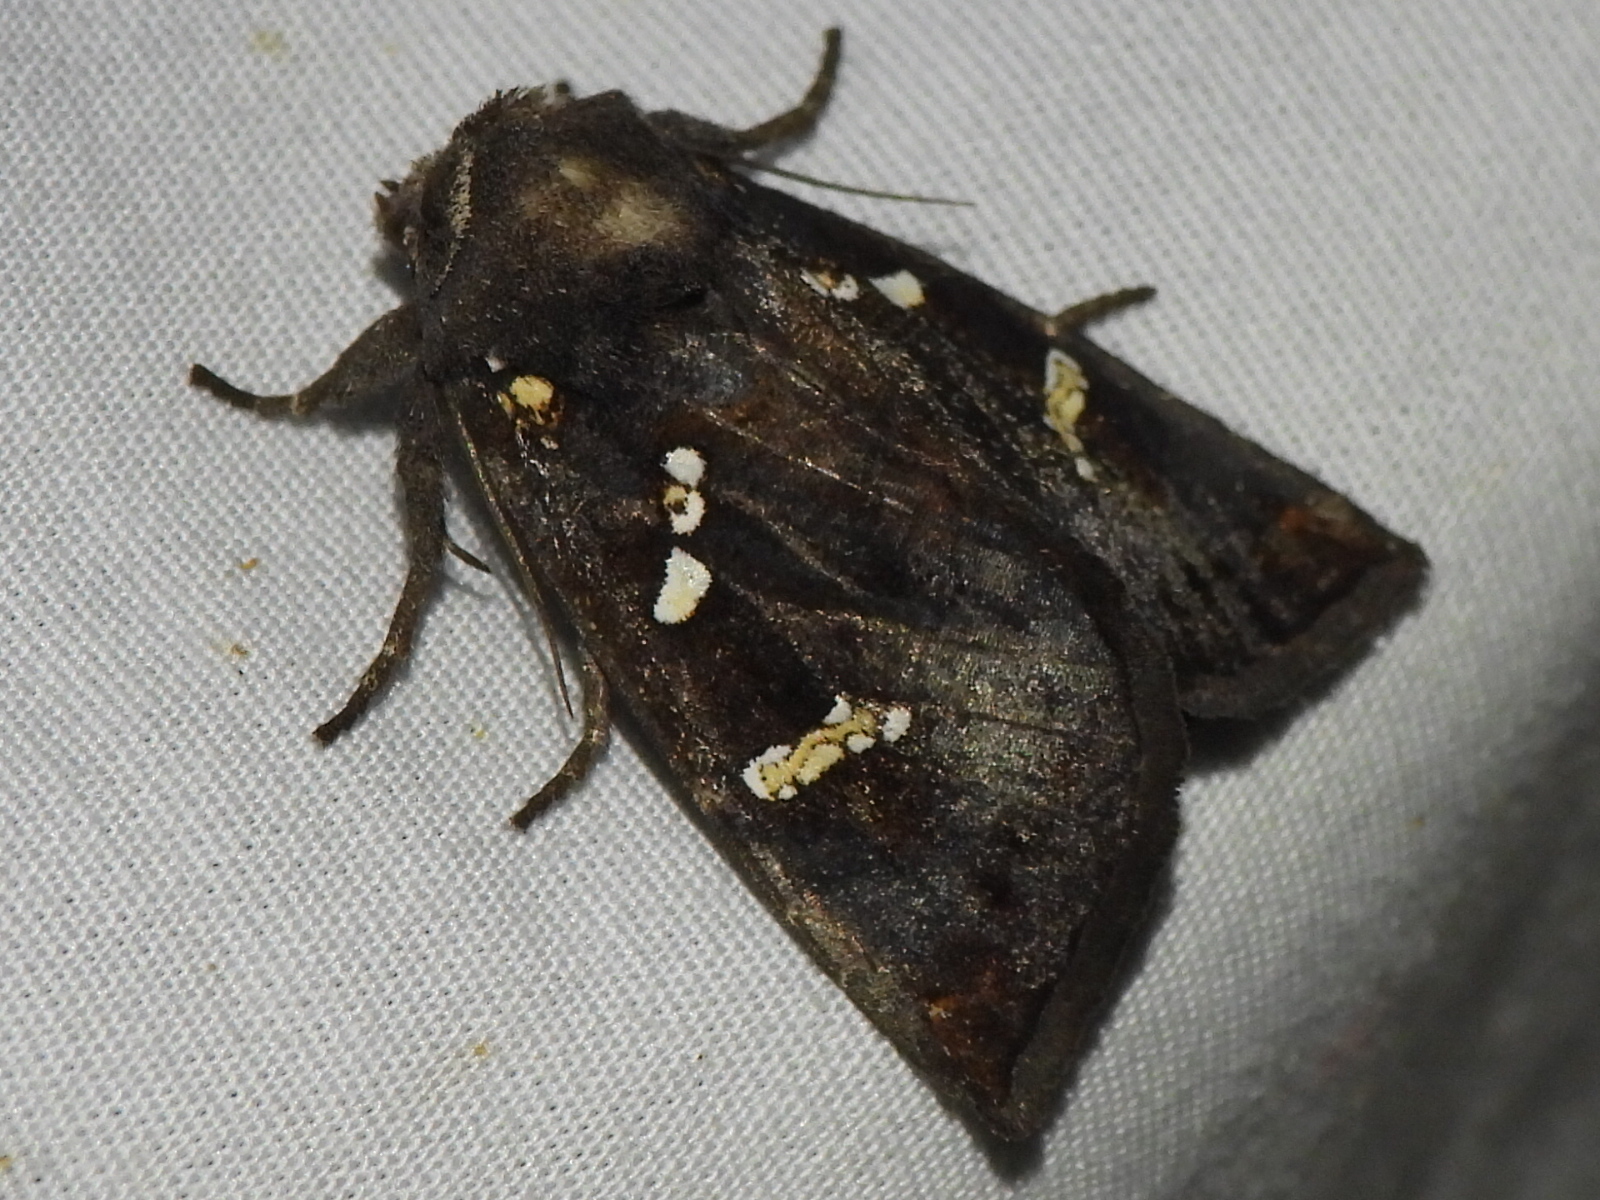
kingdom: Animalia
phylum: Arthropoda
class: Insecta
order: Lepidoptera
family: Noctuidae
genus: Papaipema
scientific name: Papaipema cerussata
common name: Ironweed borer moth
